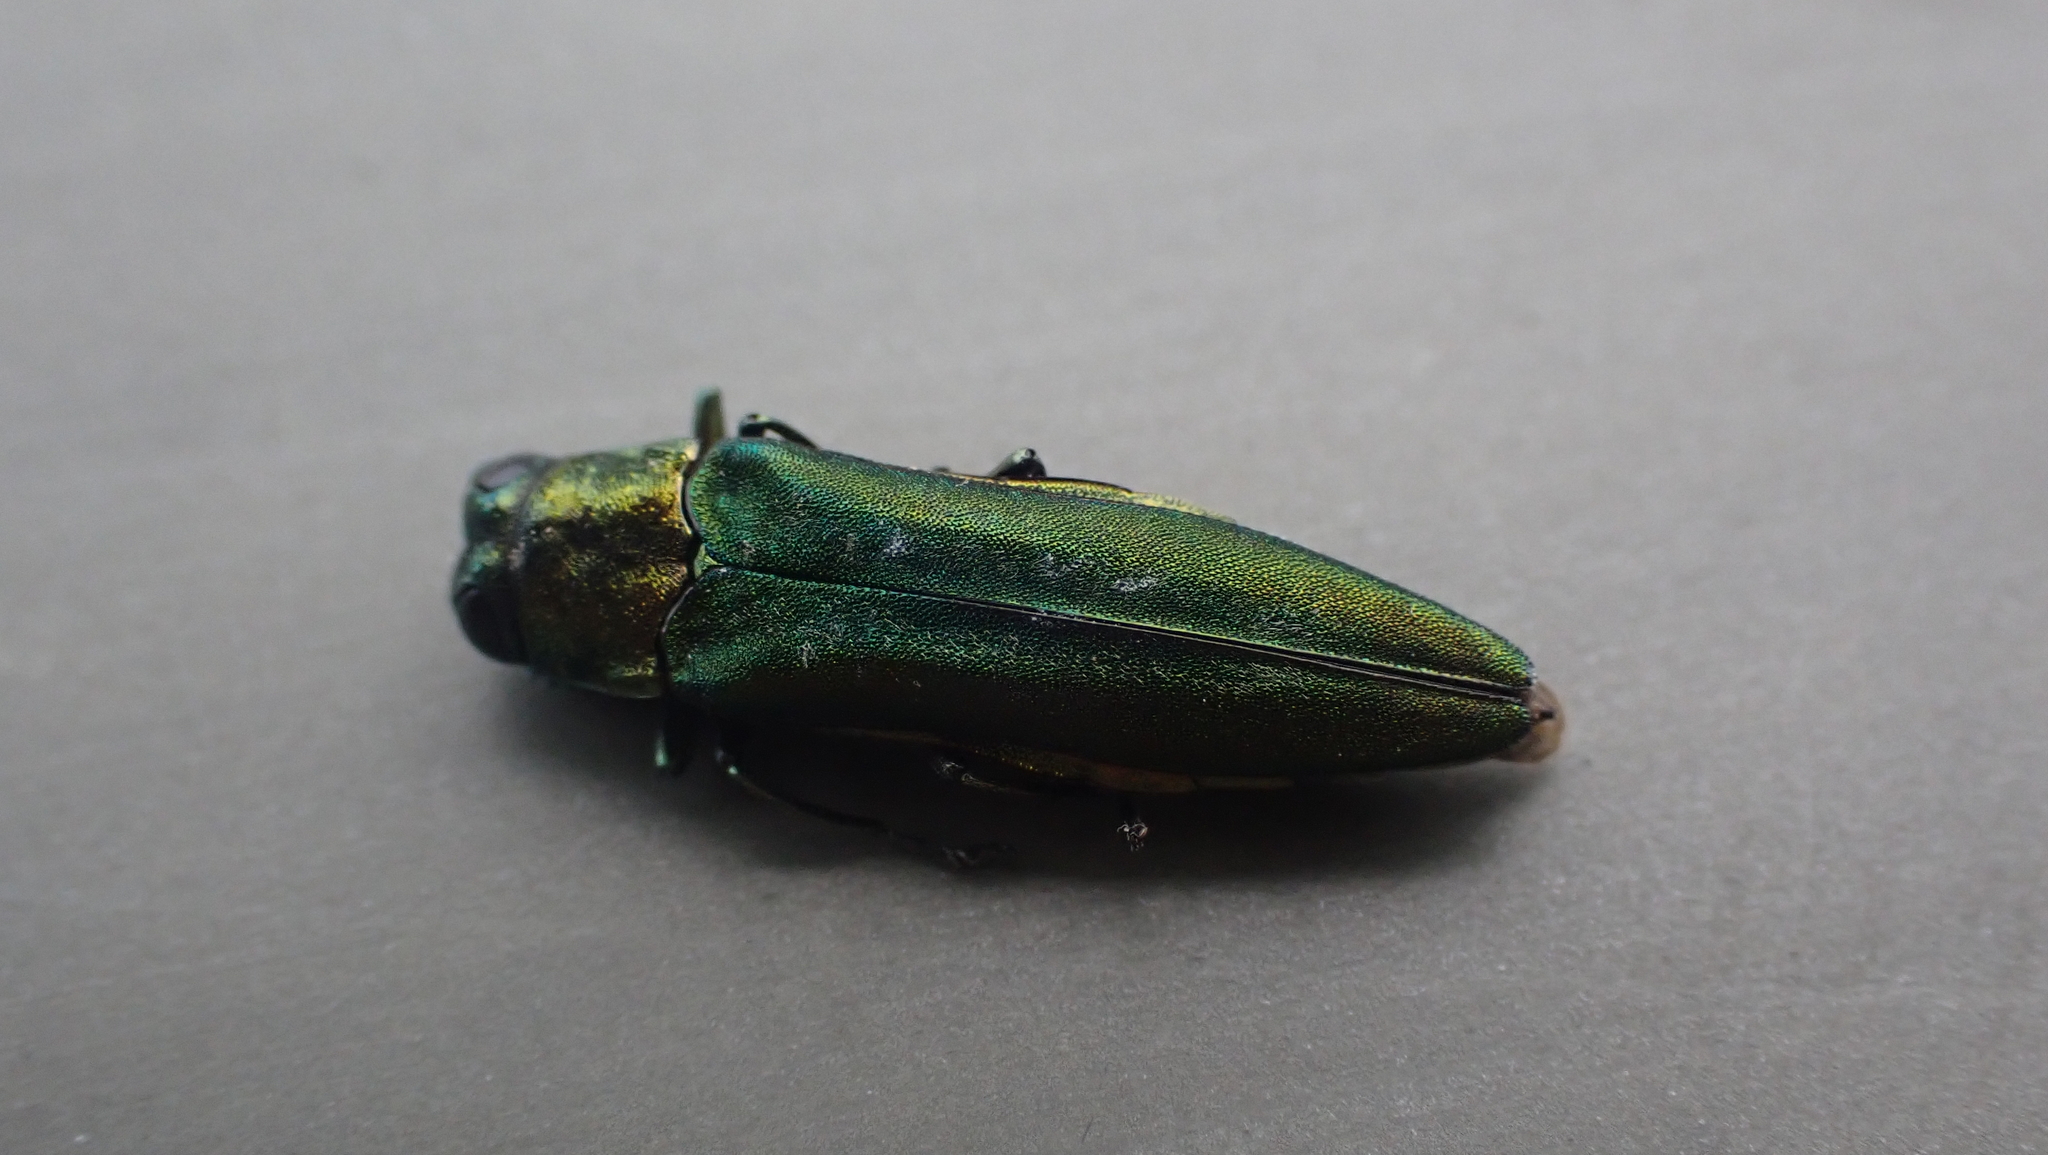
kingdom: Animalia
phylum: Arthropoda
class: Insecta
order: Coleoptera
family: Buprestidae
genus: Agrilus
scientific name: Agrilus planipennis
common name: Emerald ash borer
